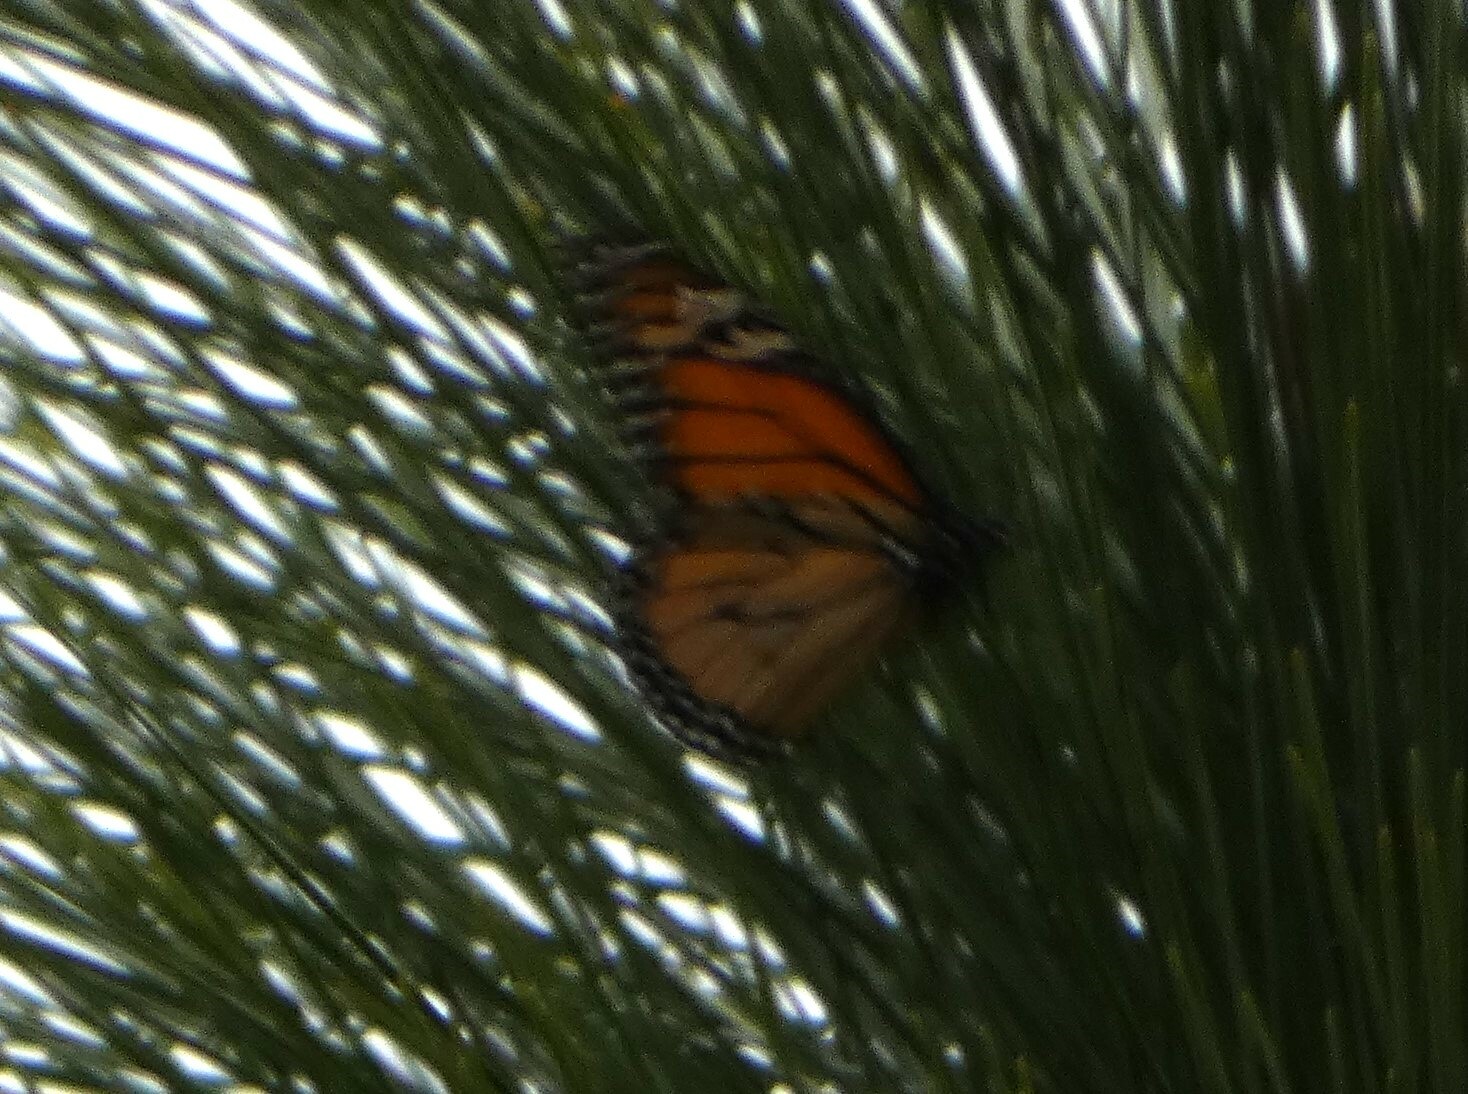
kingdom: Animalia
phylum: Arthropoda
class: Insecta
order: Lepidoptera
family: Nymphalidae
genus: Danaus
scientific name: Danaus plexippus
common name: Monarch
